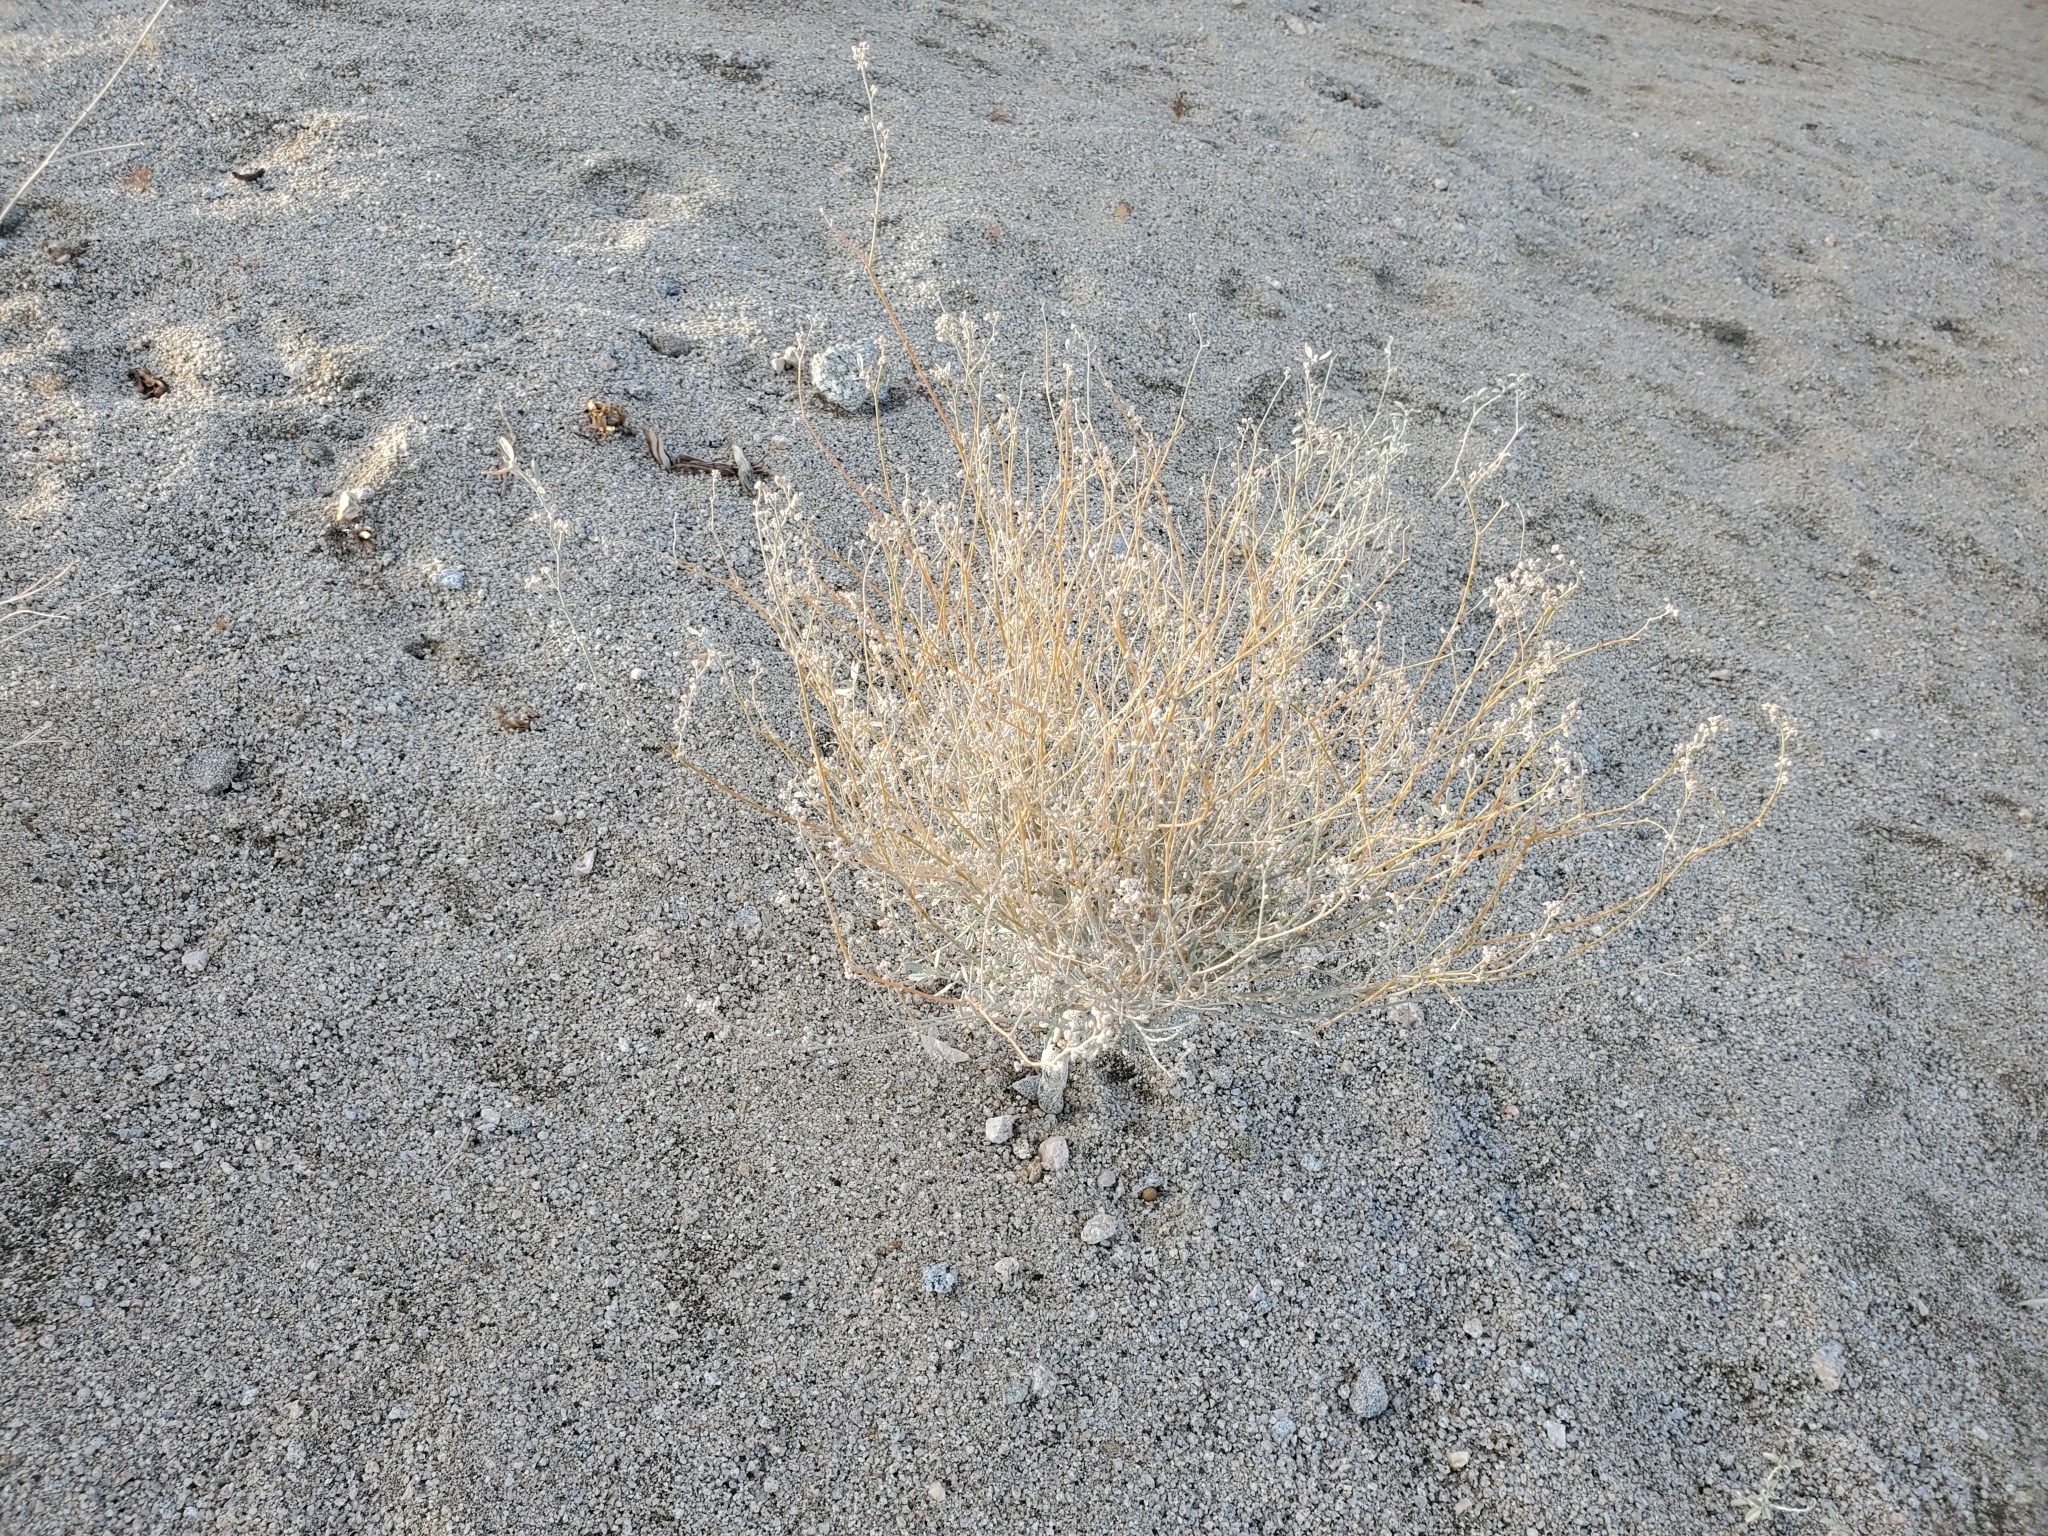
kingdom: Plantae
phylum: Tracheophyta
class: Magnoliopsida
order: Malpighiales
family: Euphorbiaceae
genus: Croton
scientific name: Croton californicus
